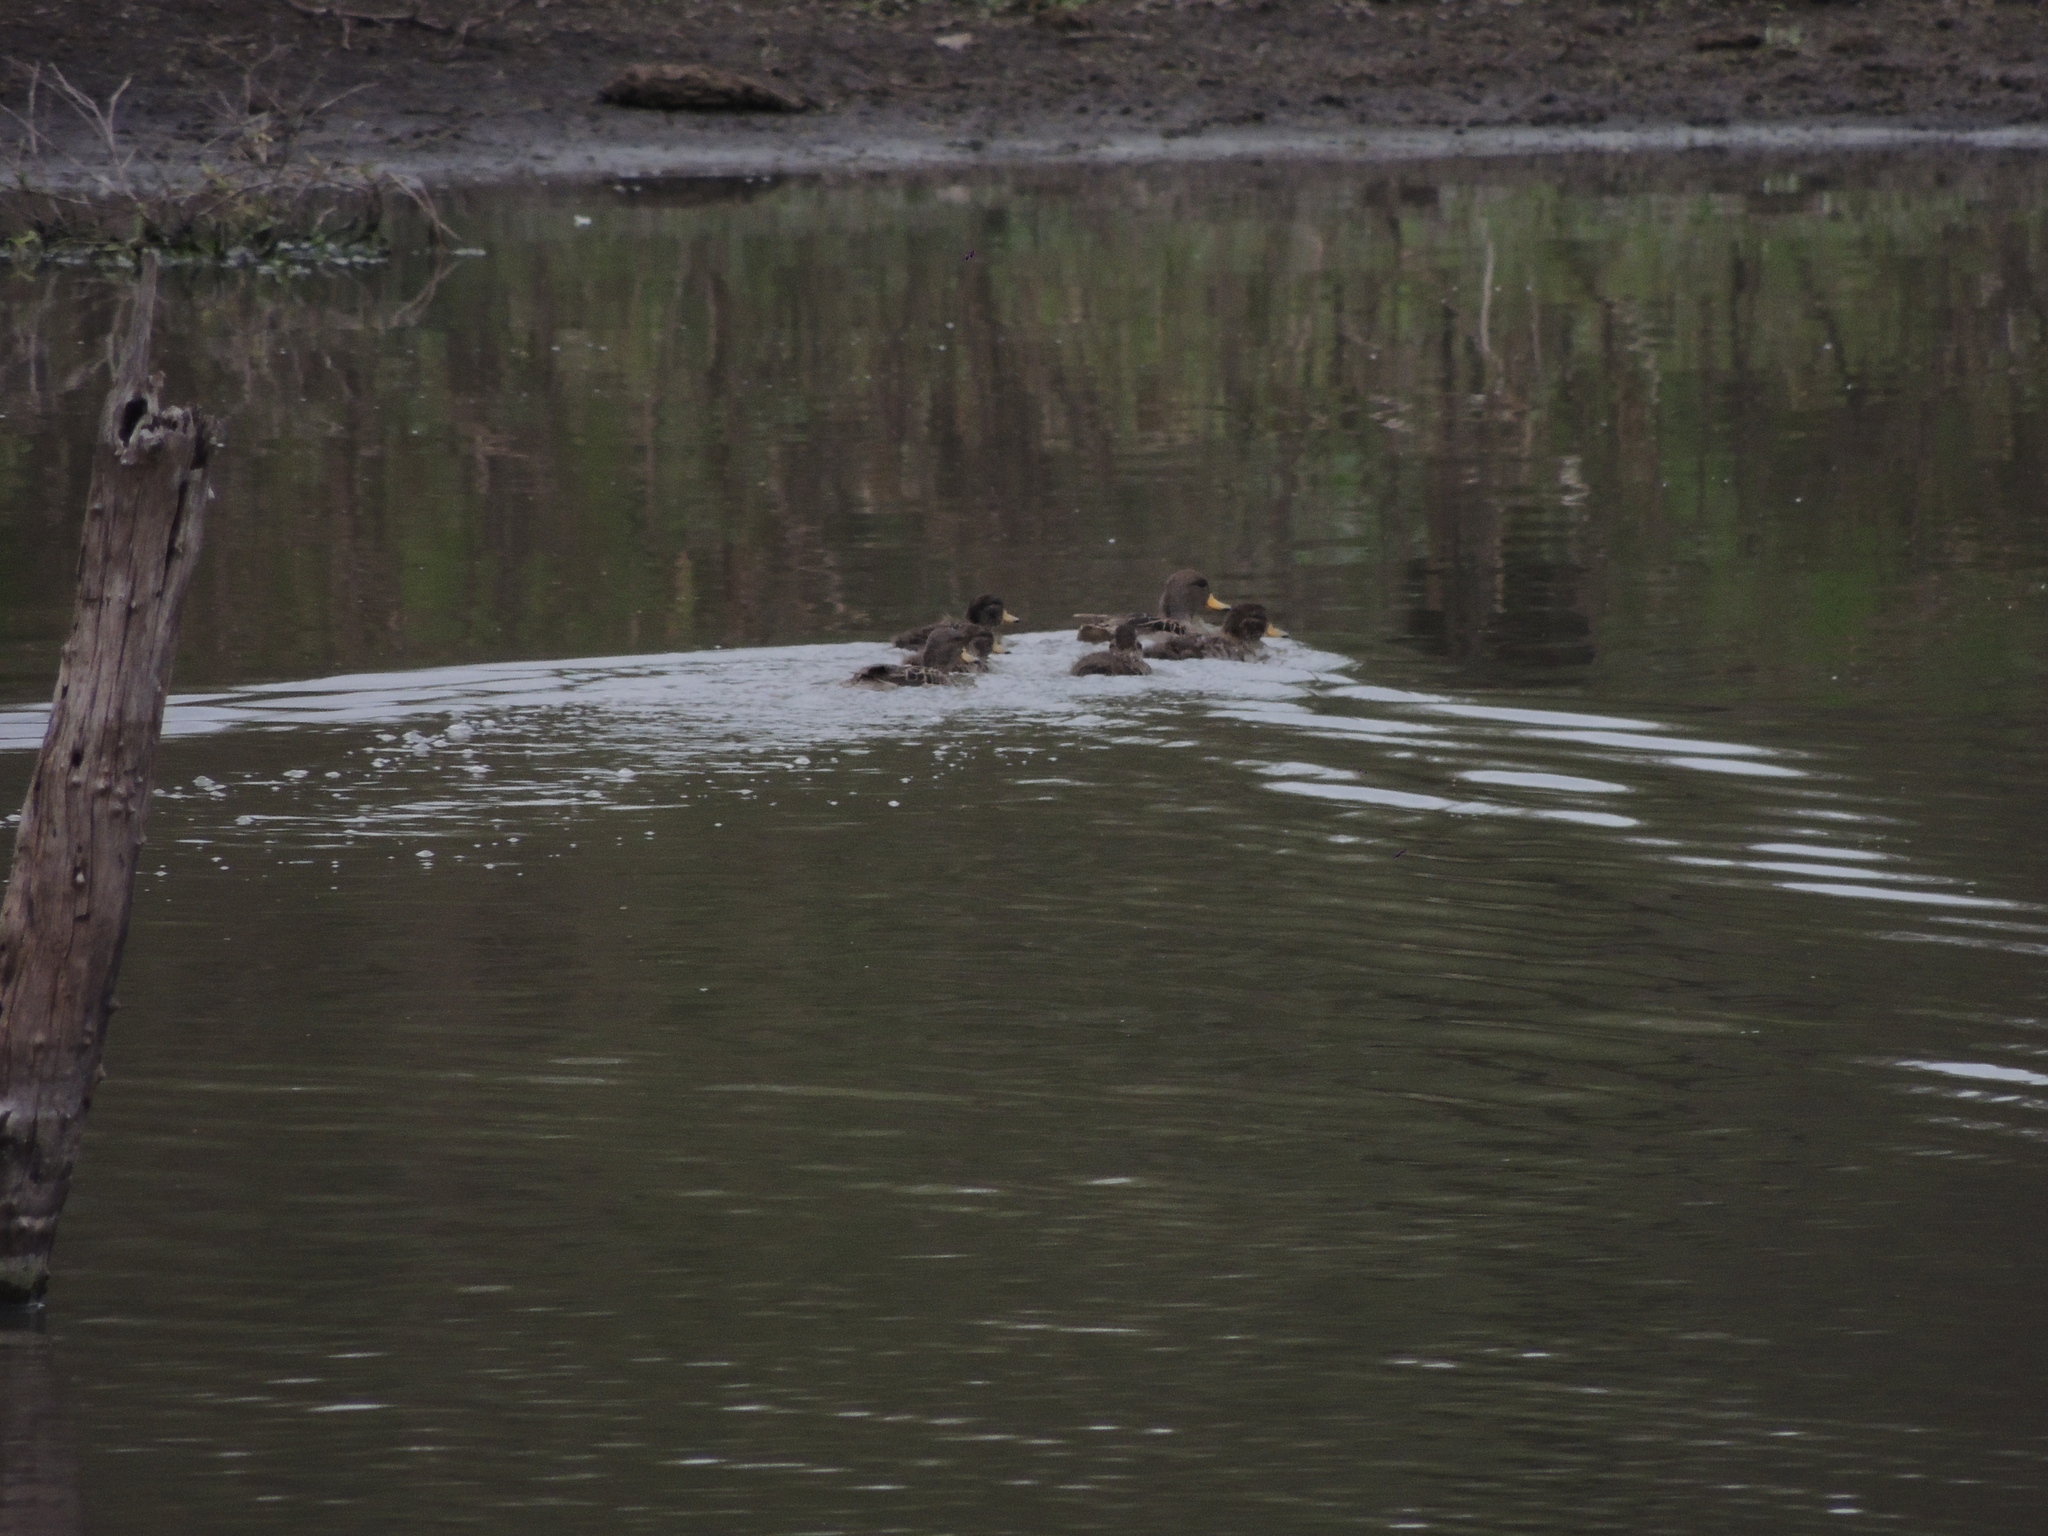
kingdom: Animalia
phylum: Chordata
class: Aves
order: Anseriformes
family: Anatidae
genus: Anas
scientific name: Anas flavirostris
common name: Yellow-billed teal
